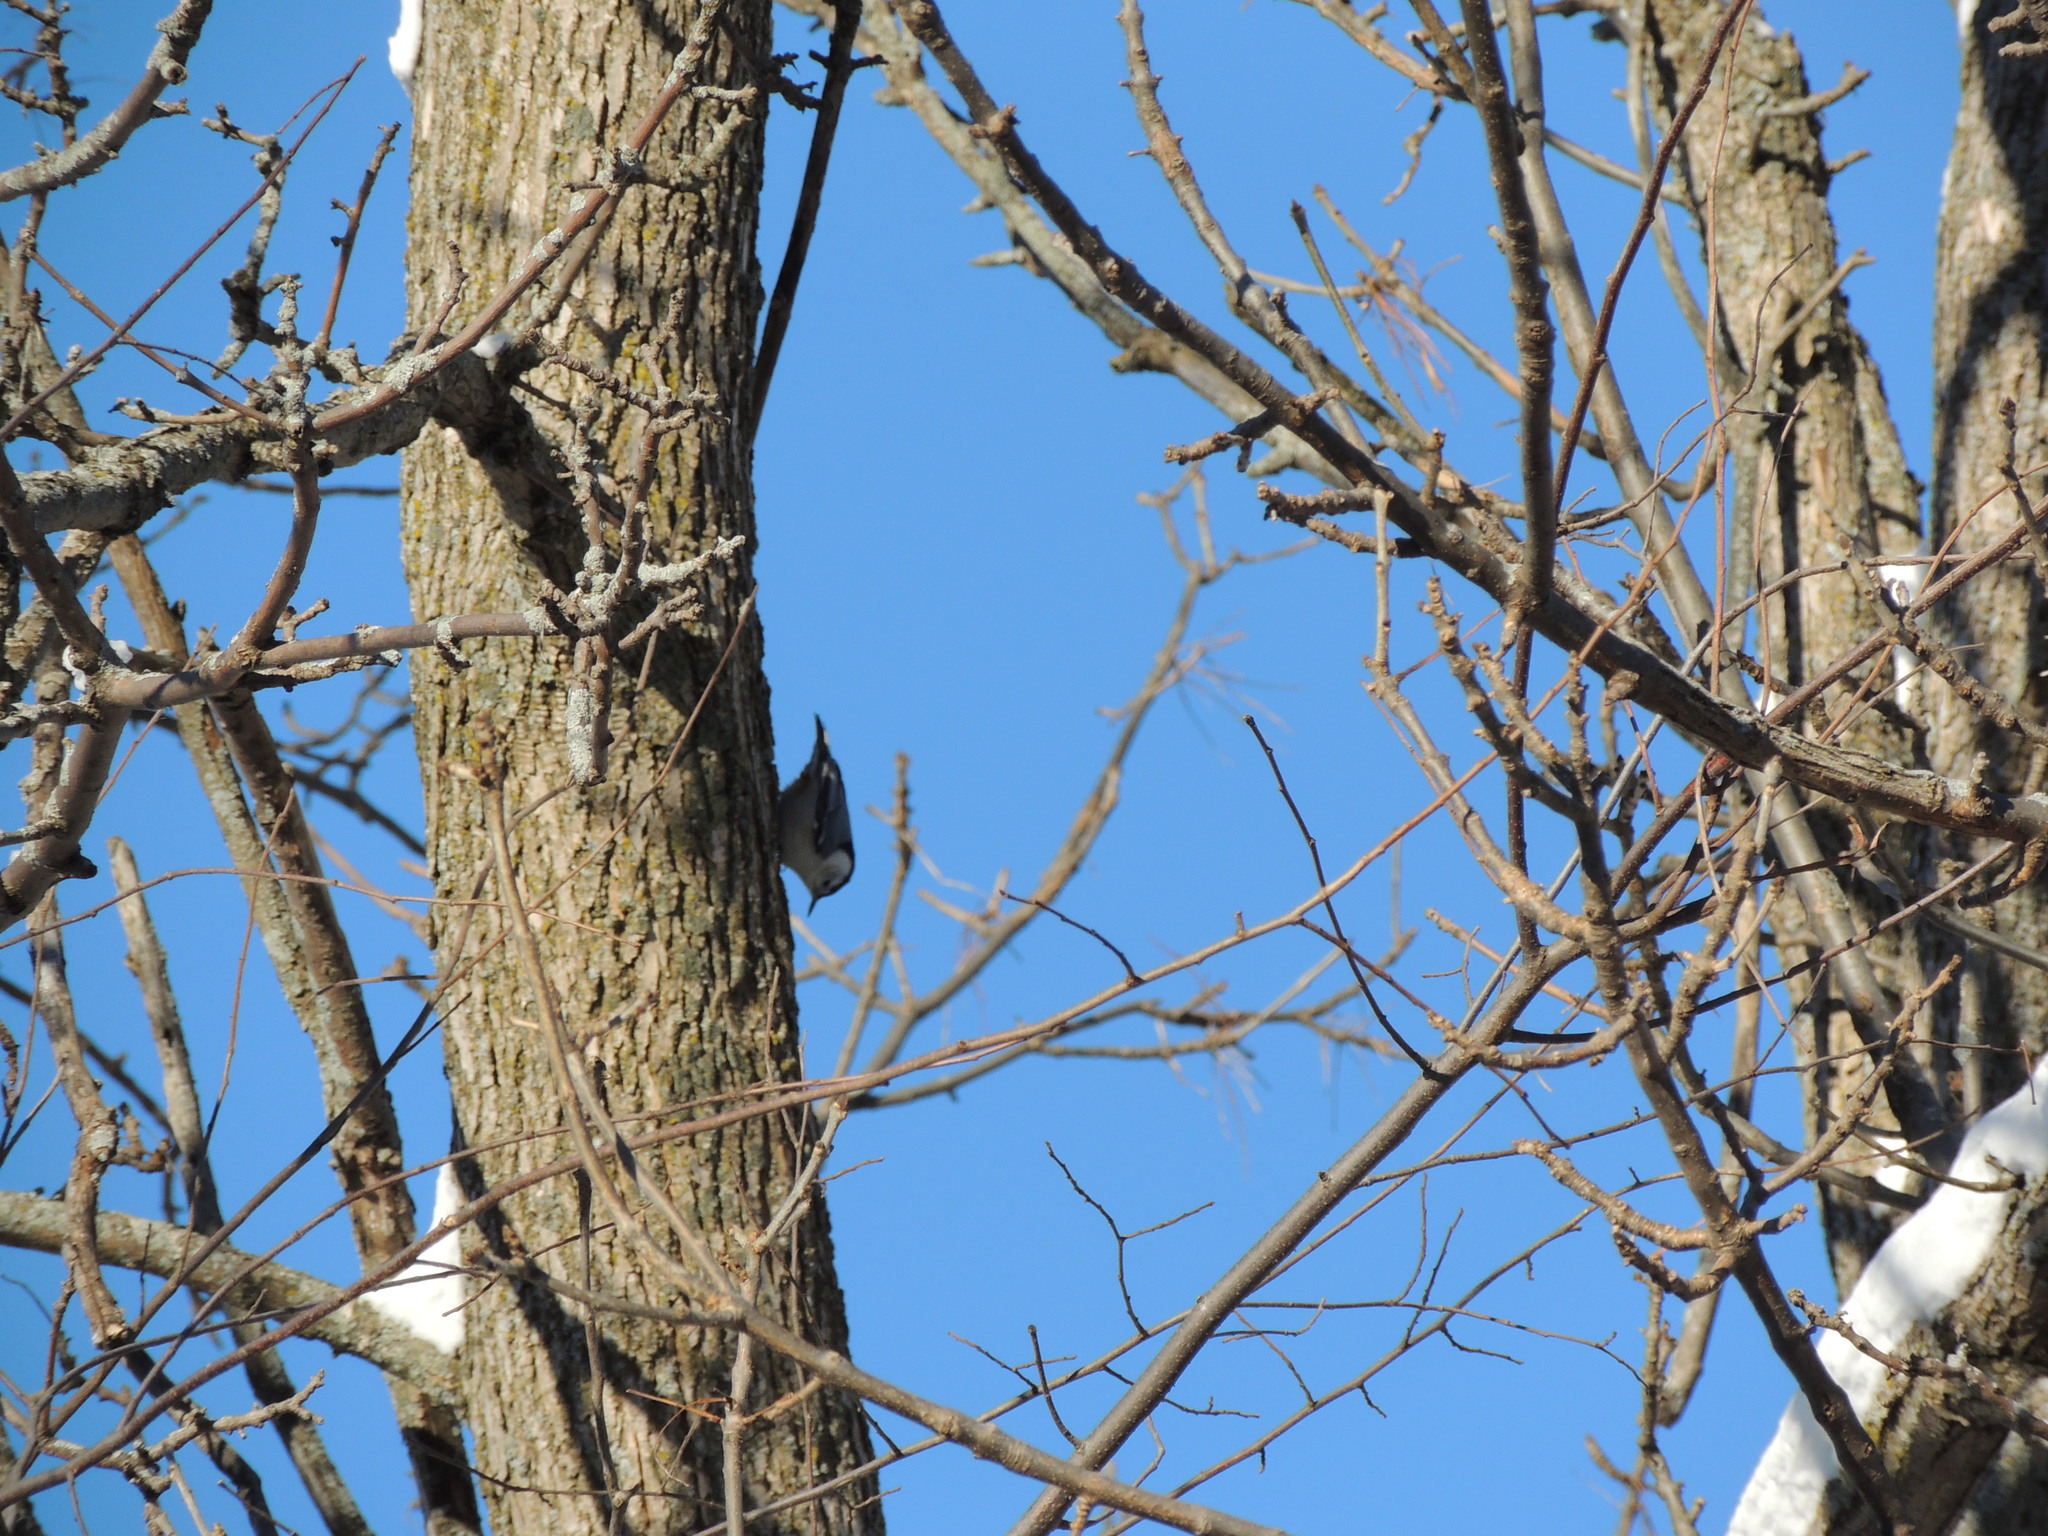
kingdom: Animalia
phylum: Chordata
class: Aves
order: Passeriformes
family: Sittidae
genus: Sitta
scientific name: Sitta carolinensis
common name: White-breasted nuthatch
